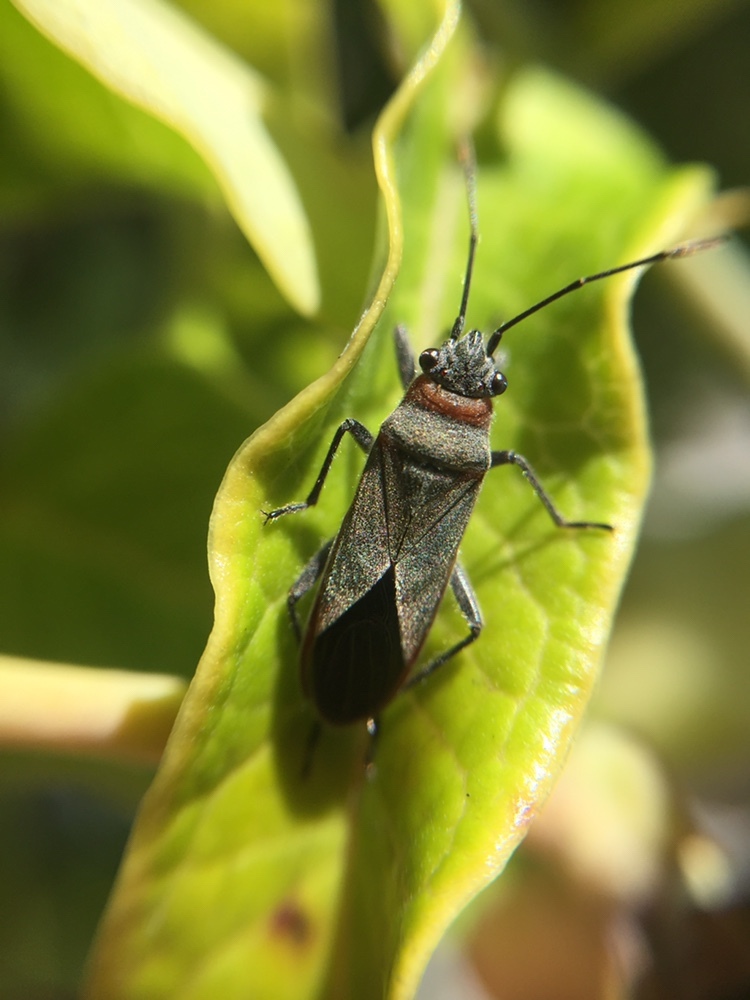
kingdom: Animalia
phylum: Arthropoda
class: Insecta
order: Hemiptera
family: Lygaeidae
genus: Arocatus
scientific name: Arocatus rusticus
